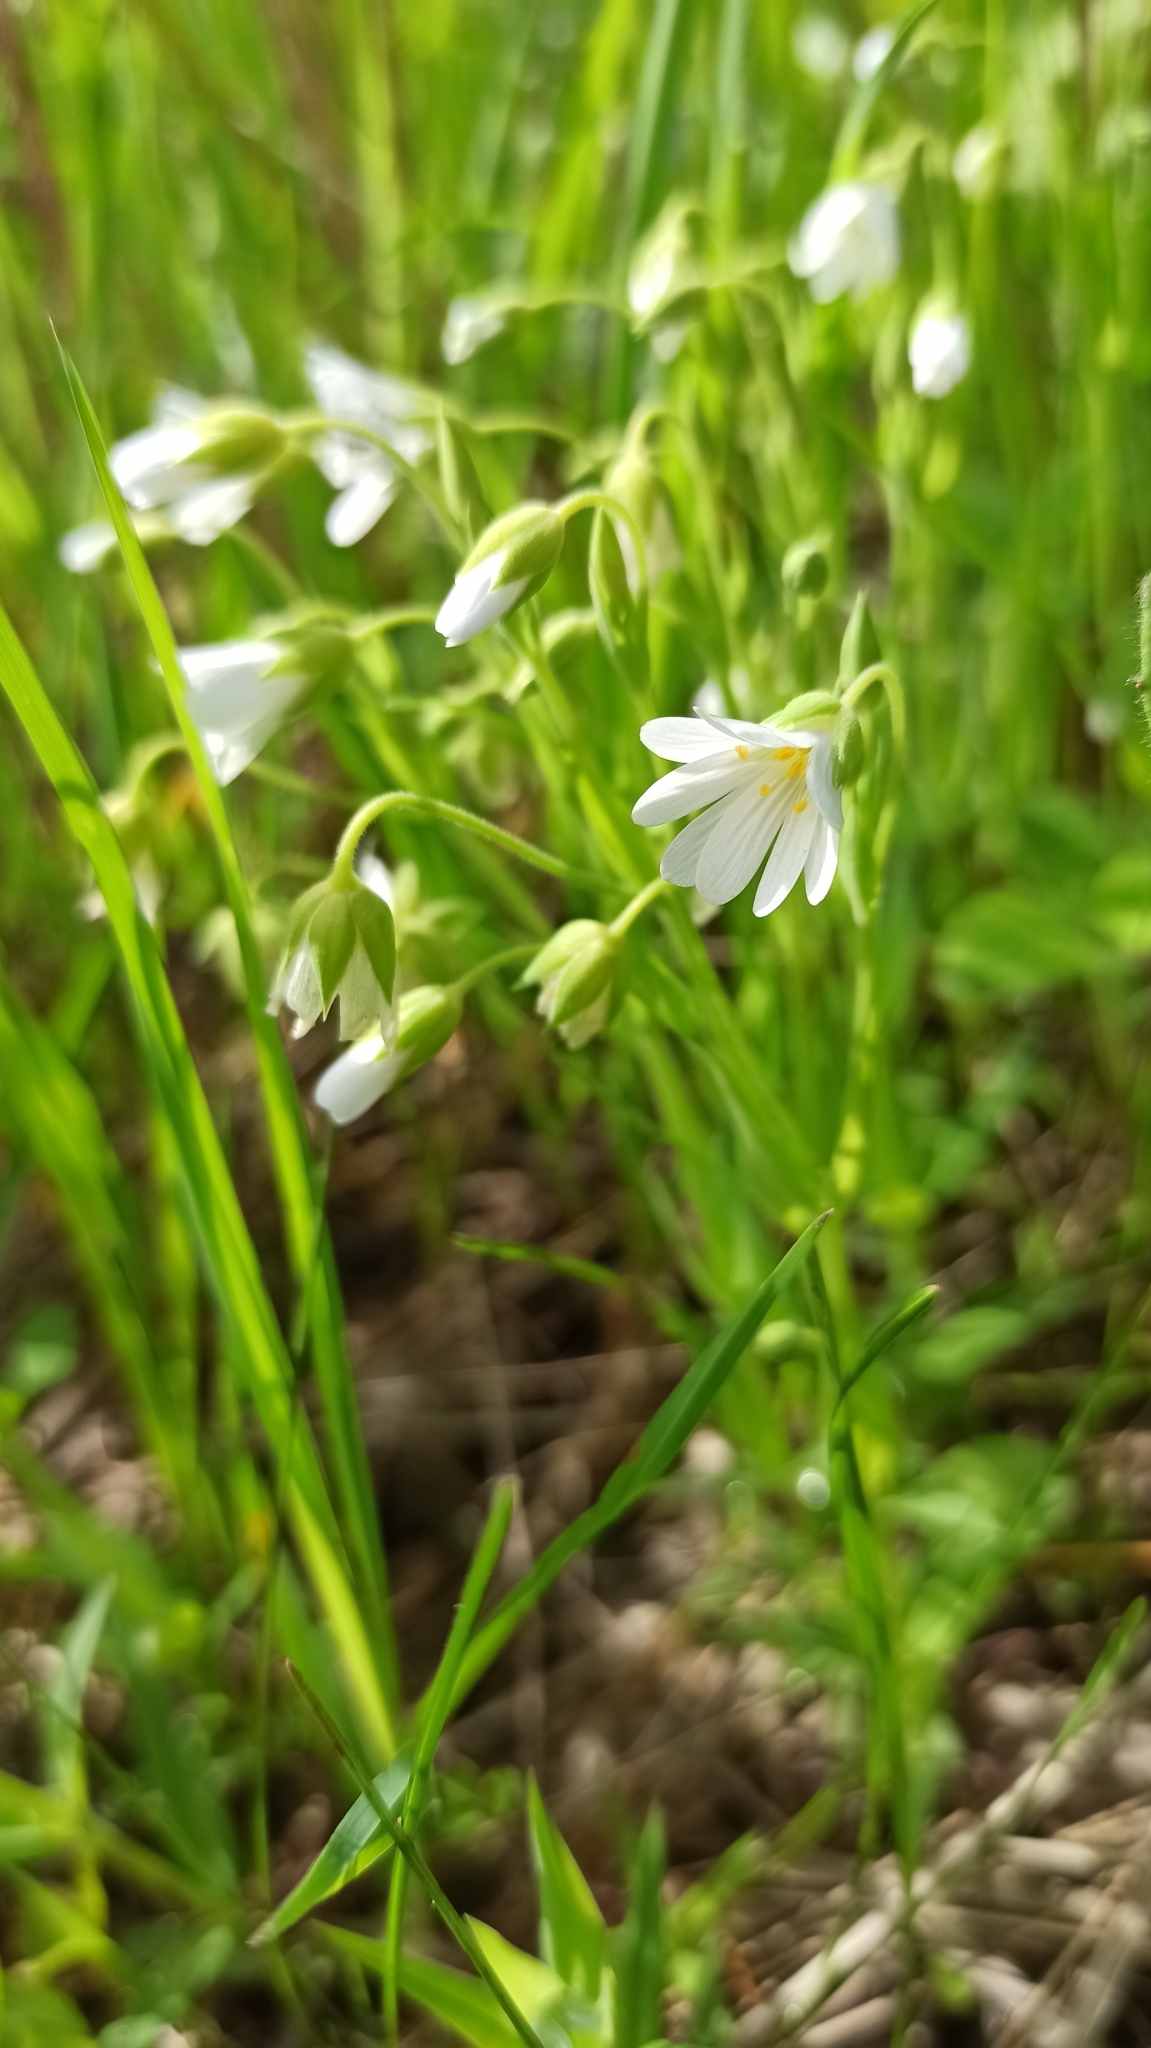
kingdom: Plantae
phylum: Tracheophyta
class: Magnoliopsida
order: Caryophyllales
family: Caryophyllaceae
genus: Rabelera
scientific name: Rabelera holostea
